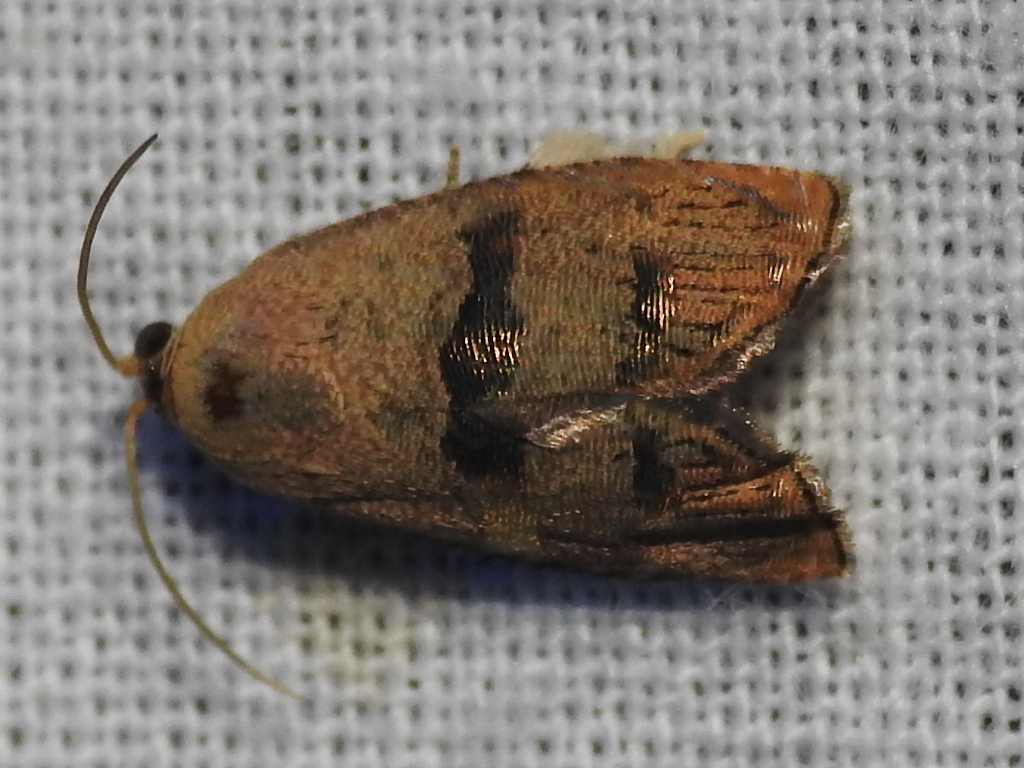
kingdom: Animalia
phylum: Arthropoda
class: Insecta
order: Lepidoptera
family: Tortricidae
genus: Cydia
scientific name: Cydia latiferreana
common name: Filbertworm moth
